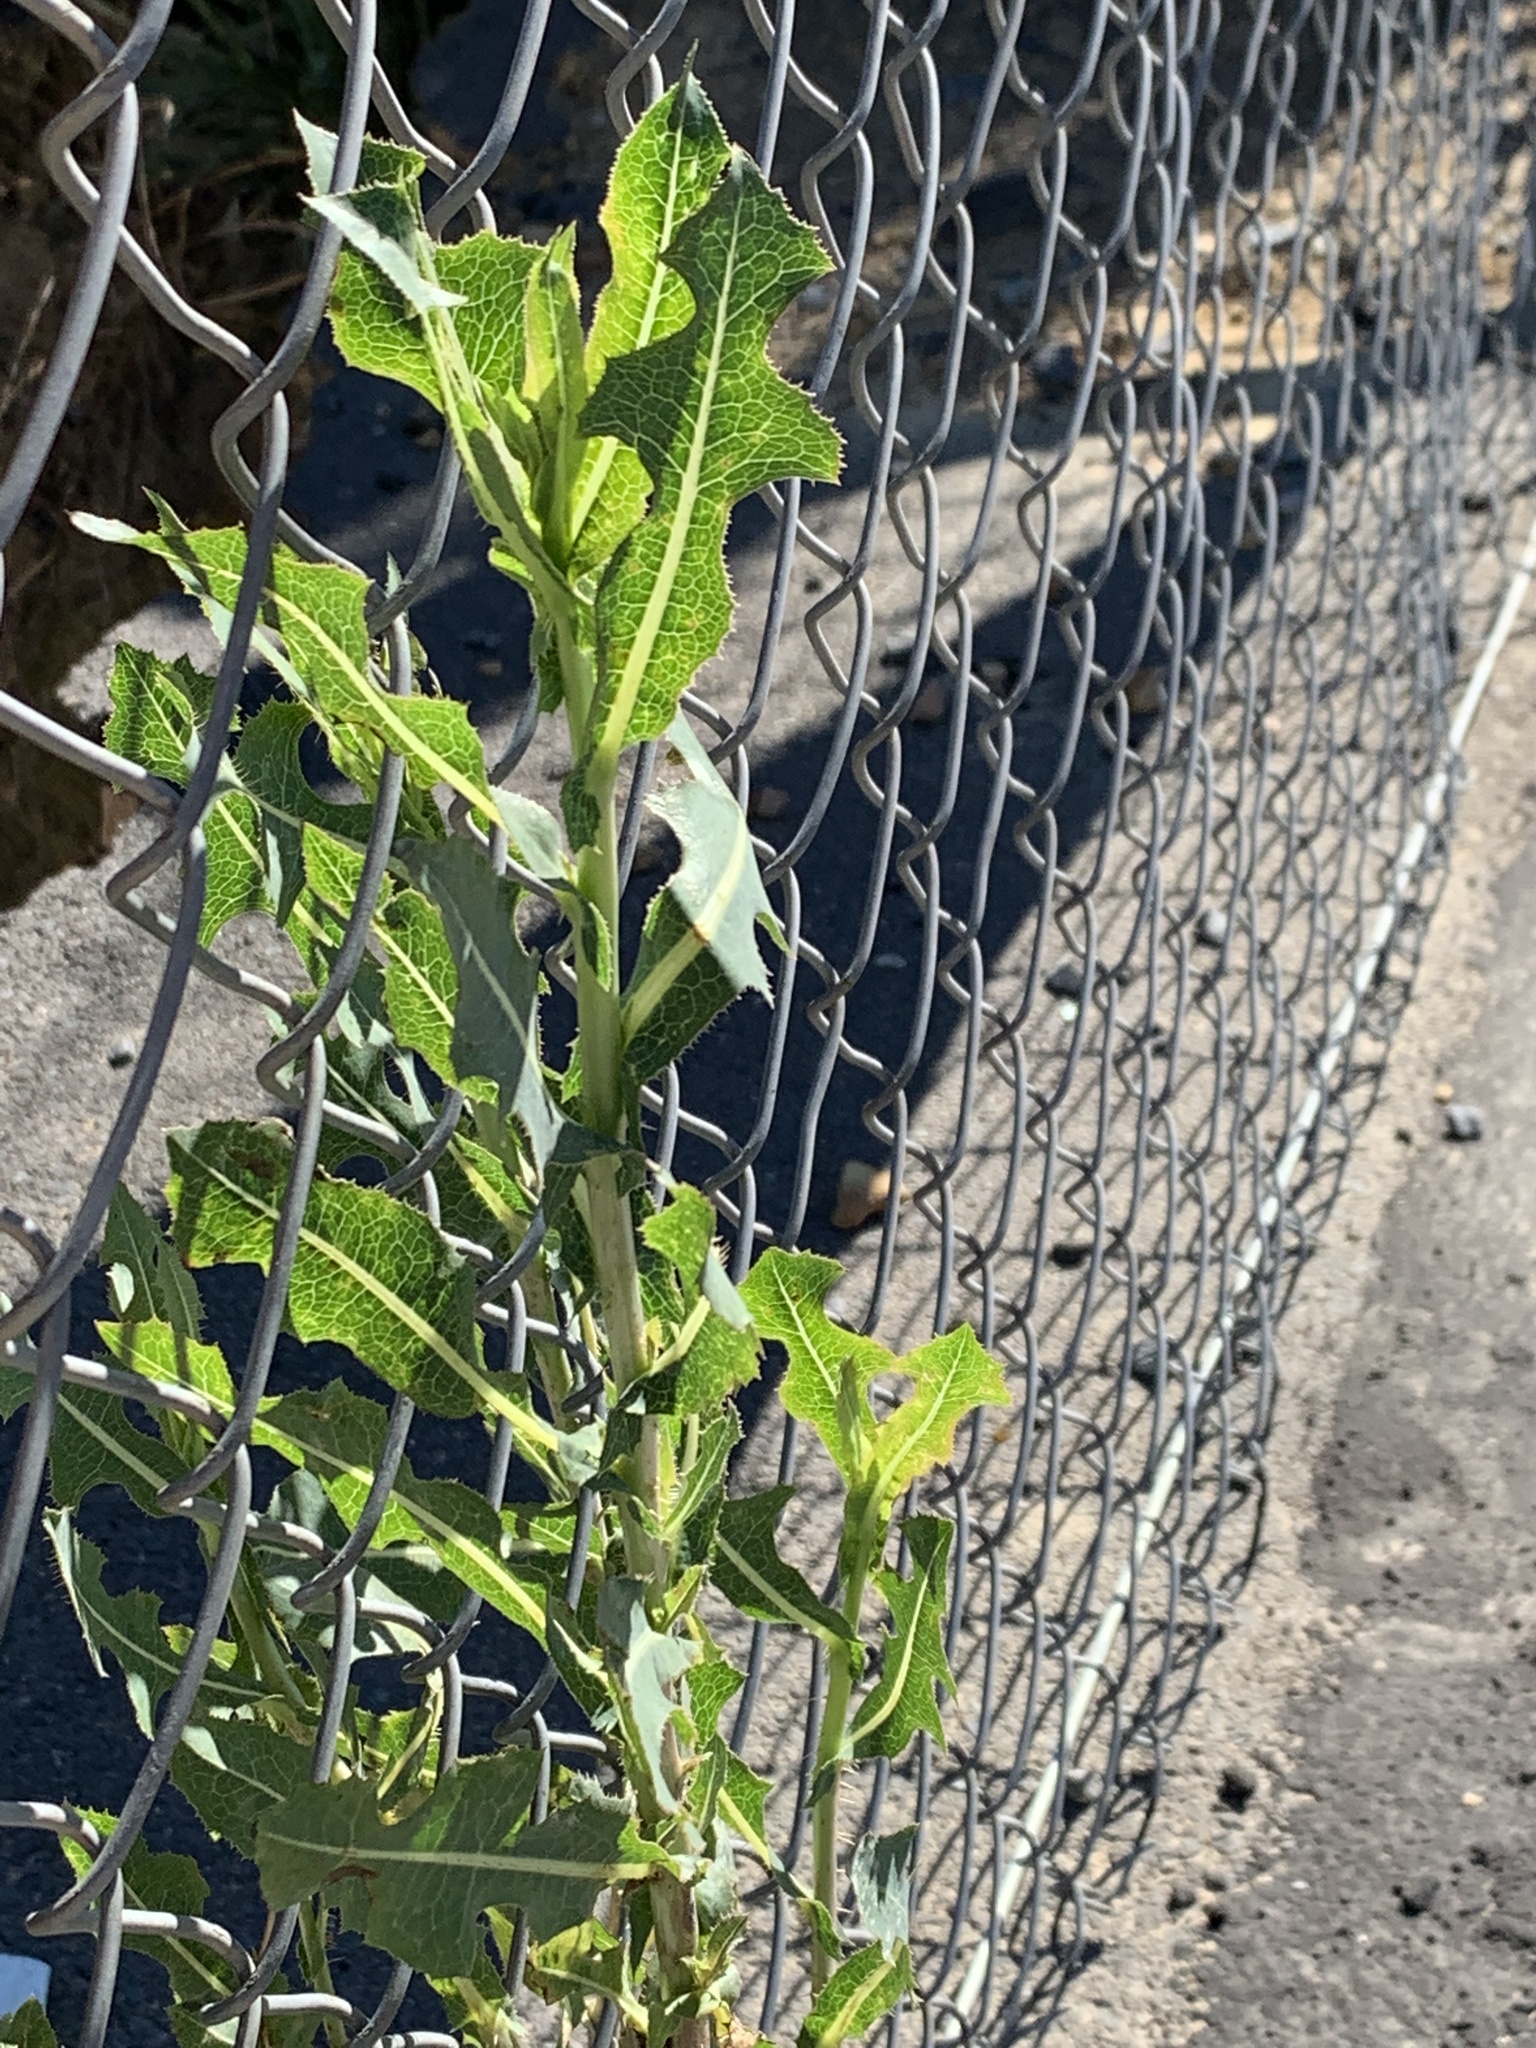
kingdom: Plantae
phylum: Tracheophyta
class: Magnoliopsida
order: Asterales
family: Asteraceae
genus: Lactuca
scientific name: Lactuca serriola
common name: Prickly lettuce
